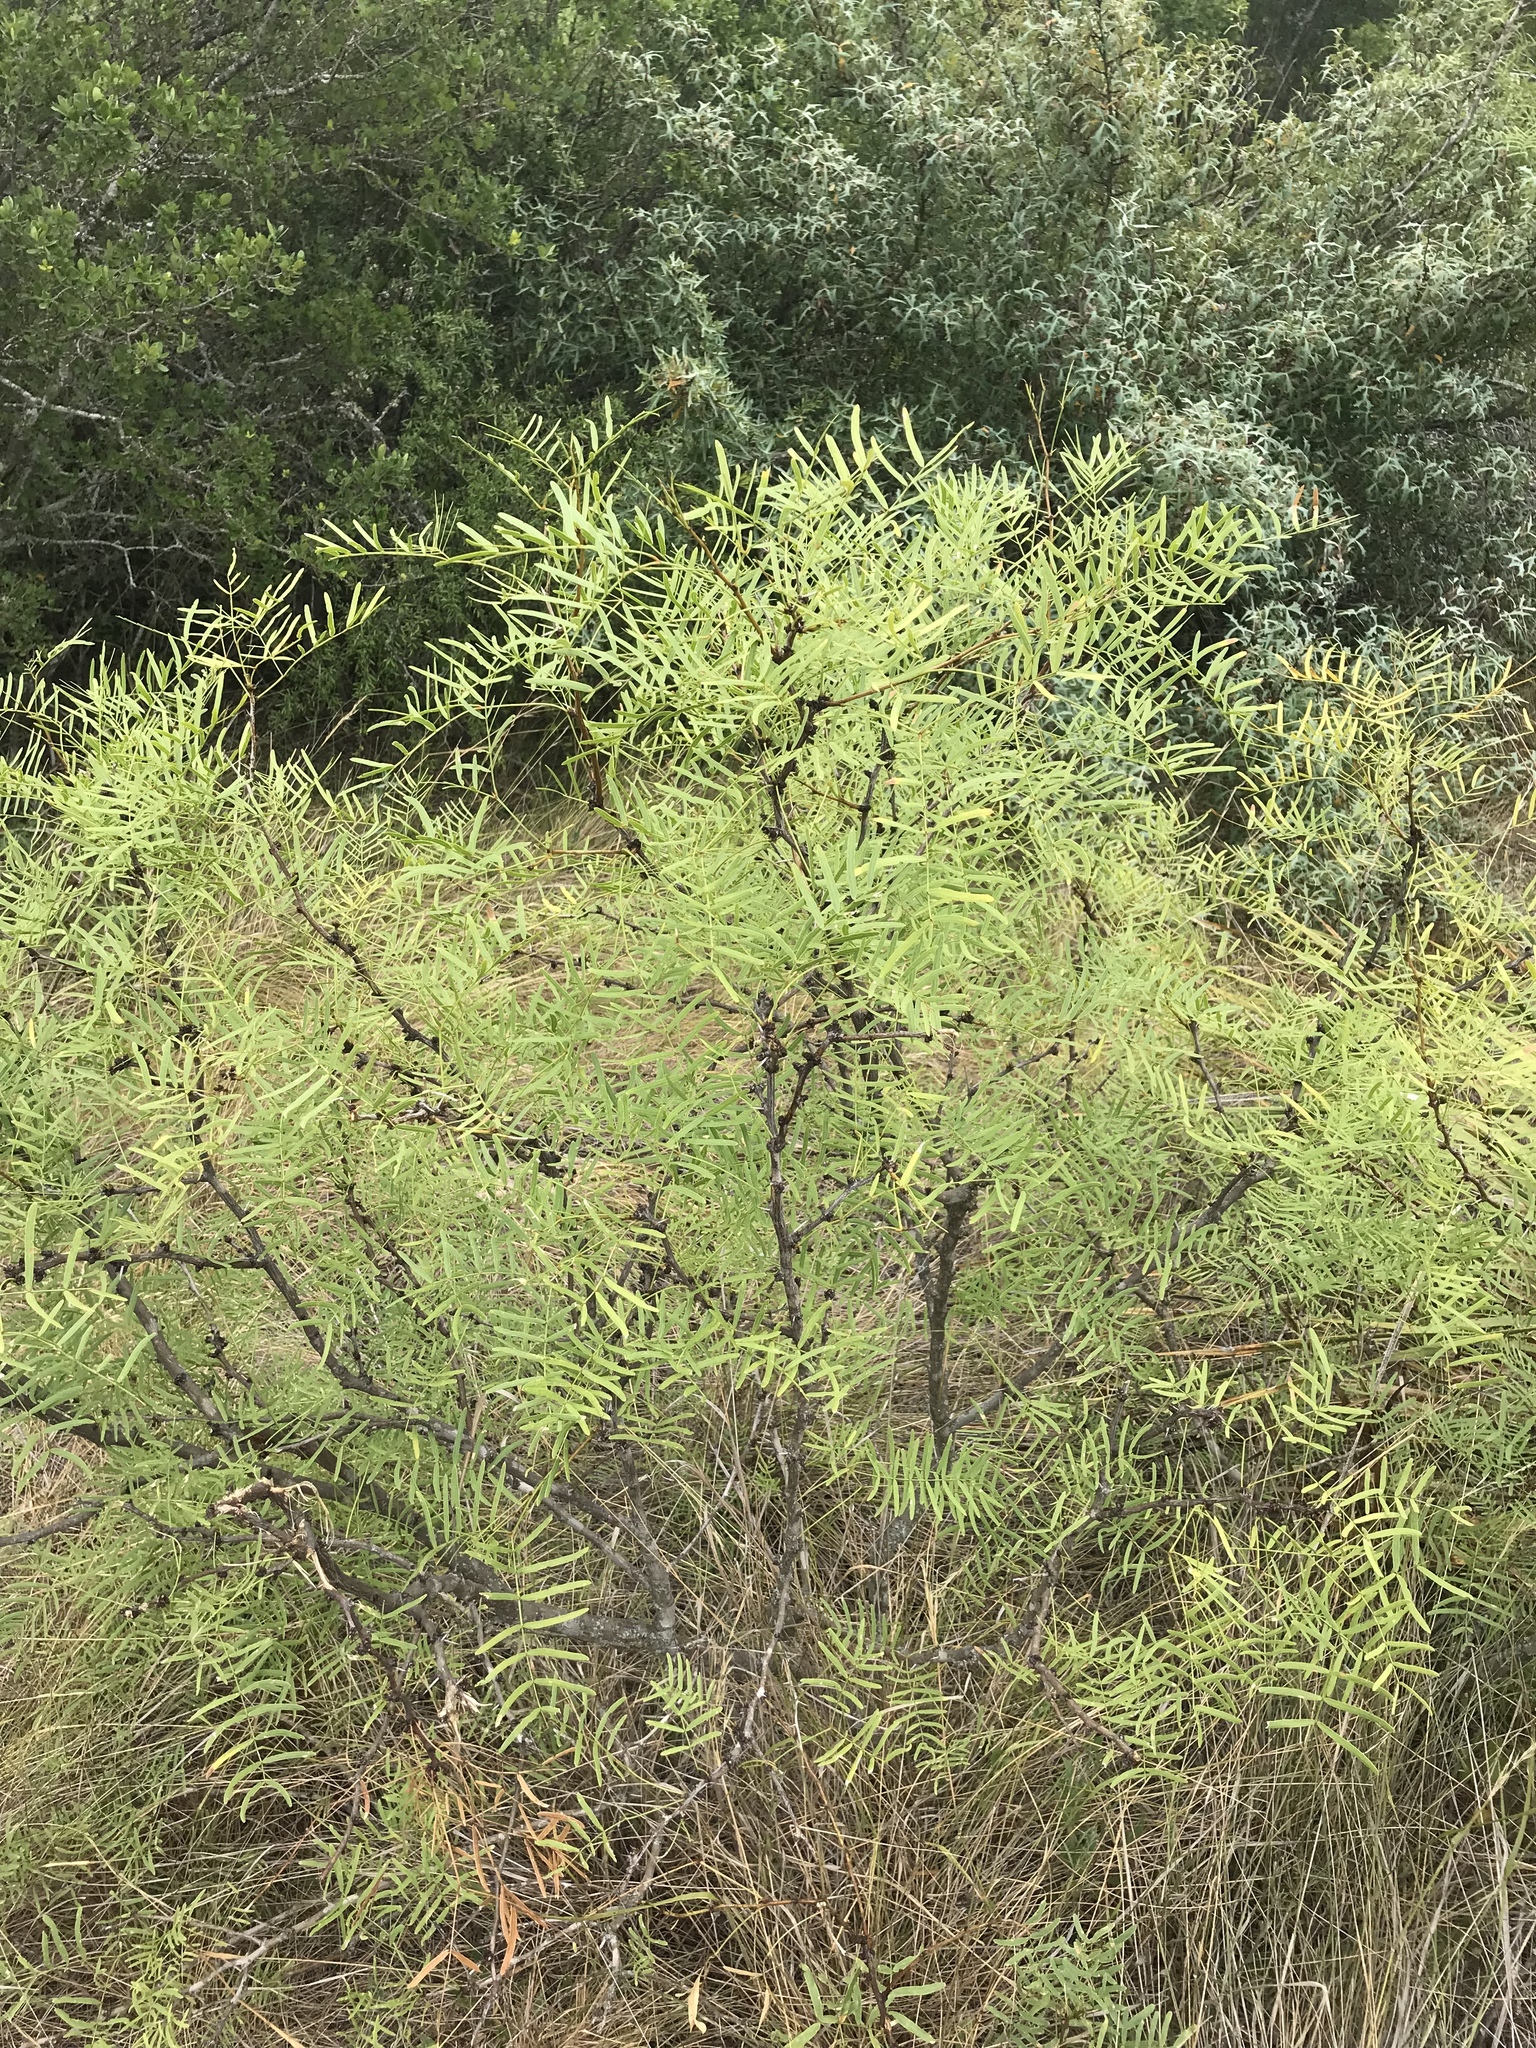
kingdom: Plantae
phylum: Tracheophyta
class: Magnoliopsida
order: Fabales
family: Fabaceae
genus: Prosopis
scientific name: Prosopis glandulosa
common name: Honey mesquite
